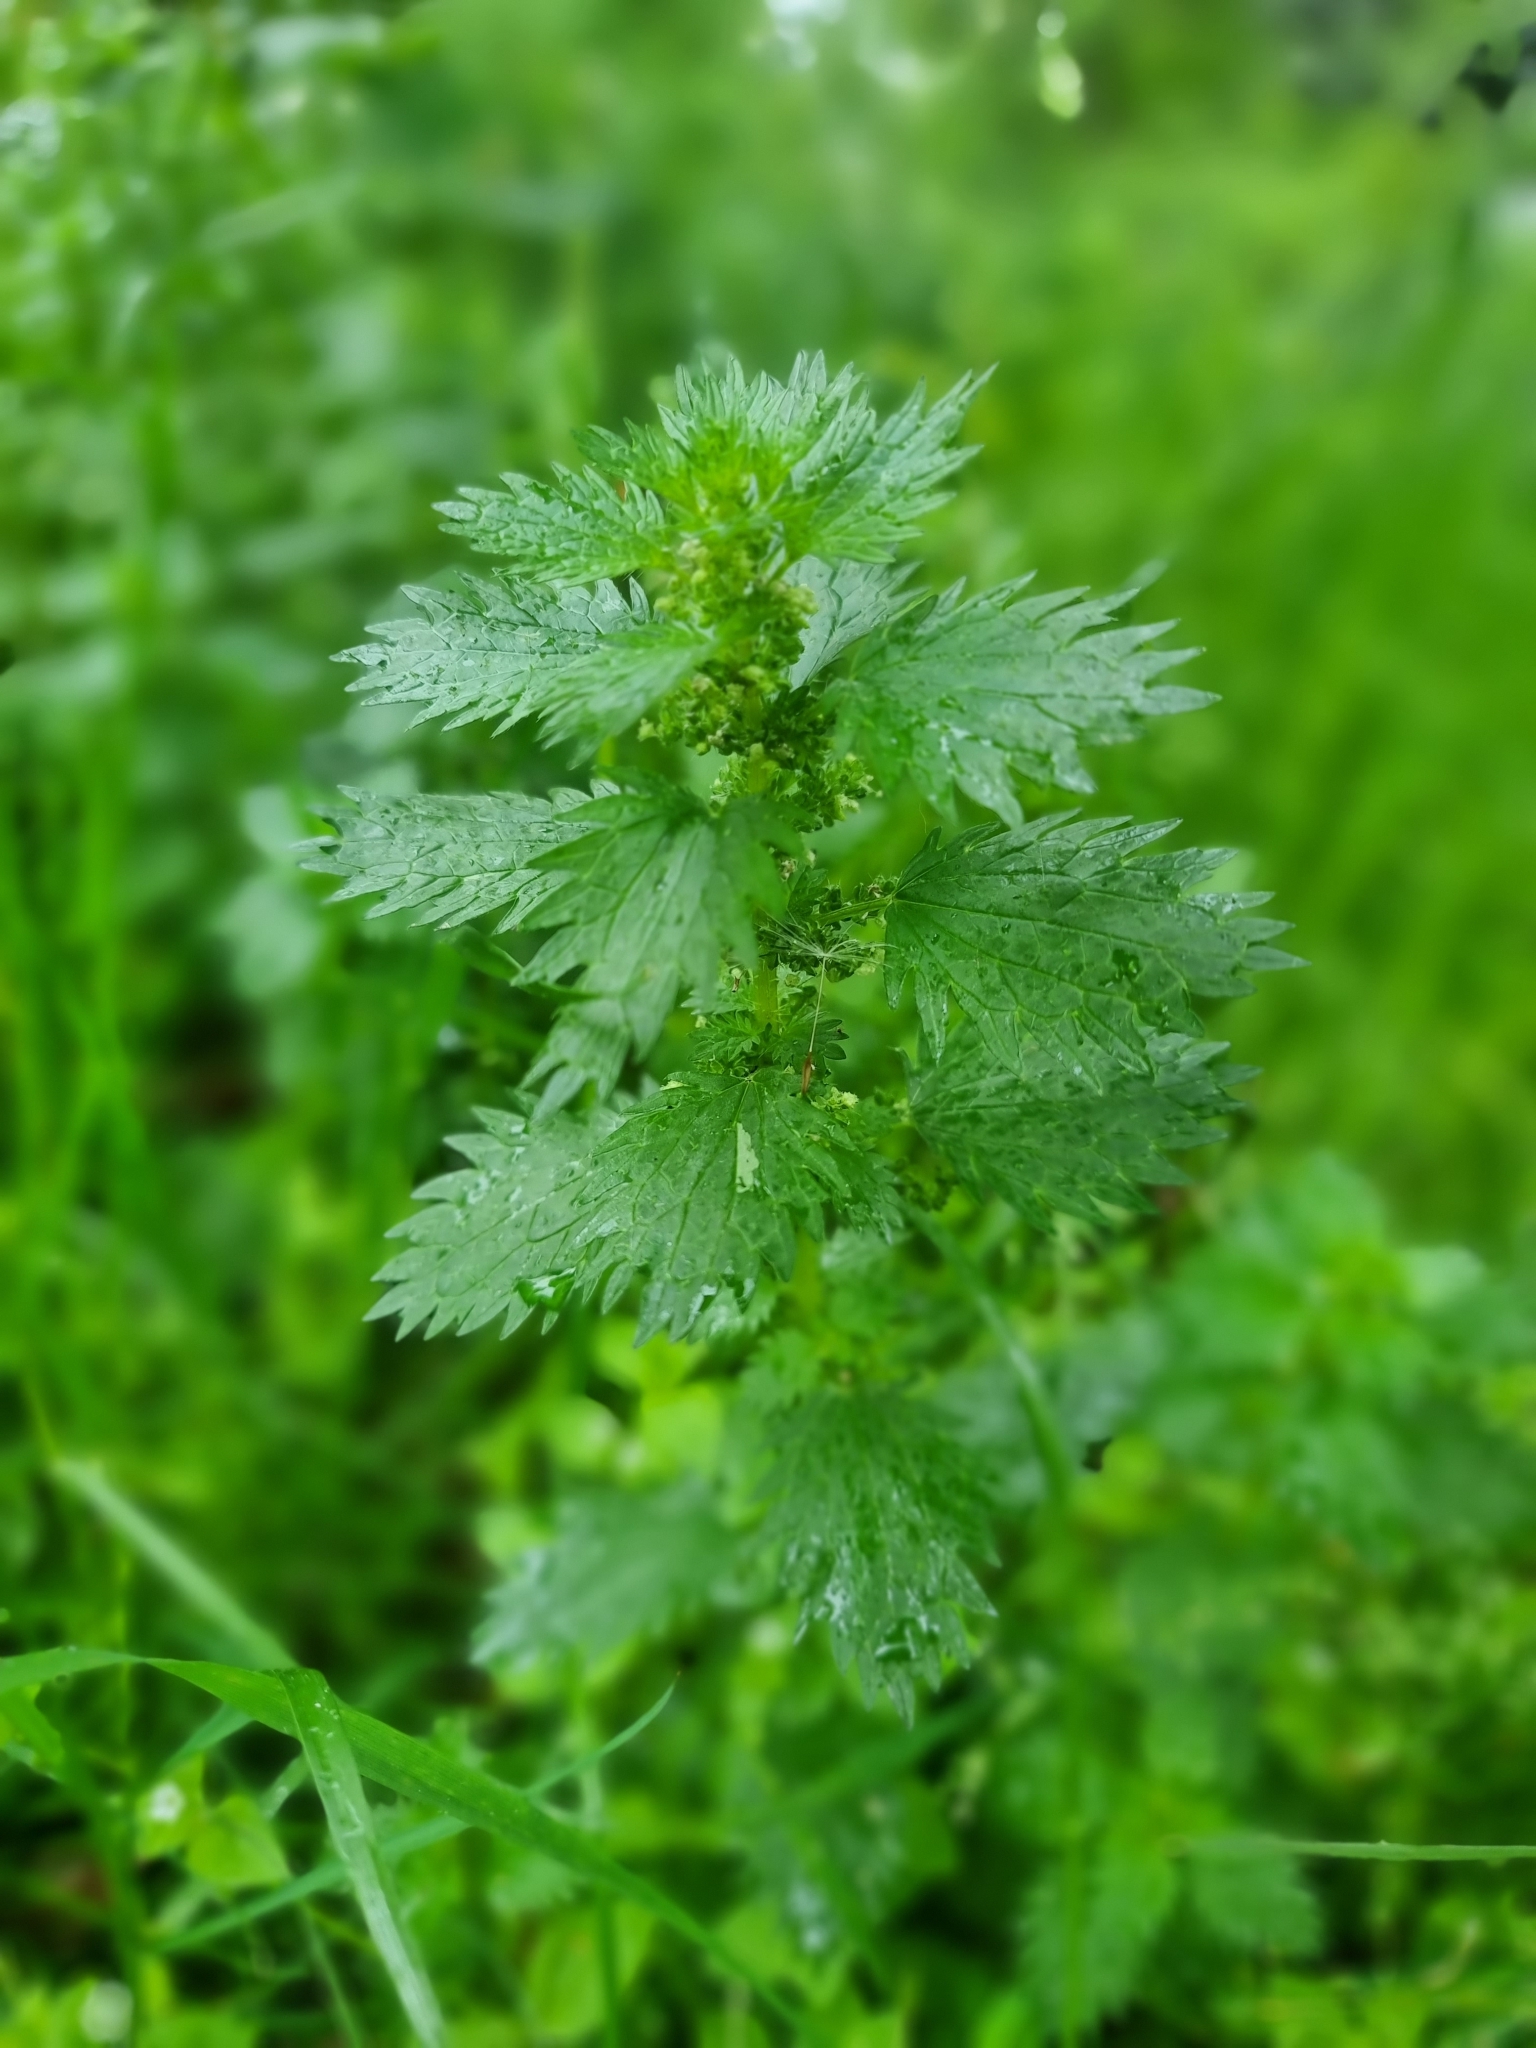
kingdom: Plantae
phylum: Tracheophyta
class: Magnoliopsida
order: Rosales
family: Urticaceae
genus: Urtica
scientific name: Urtica urens
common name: Dwarf nettle
